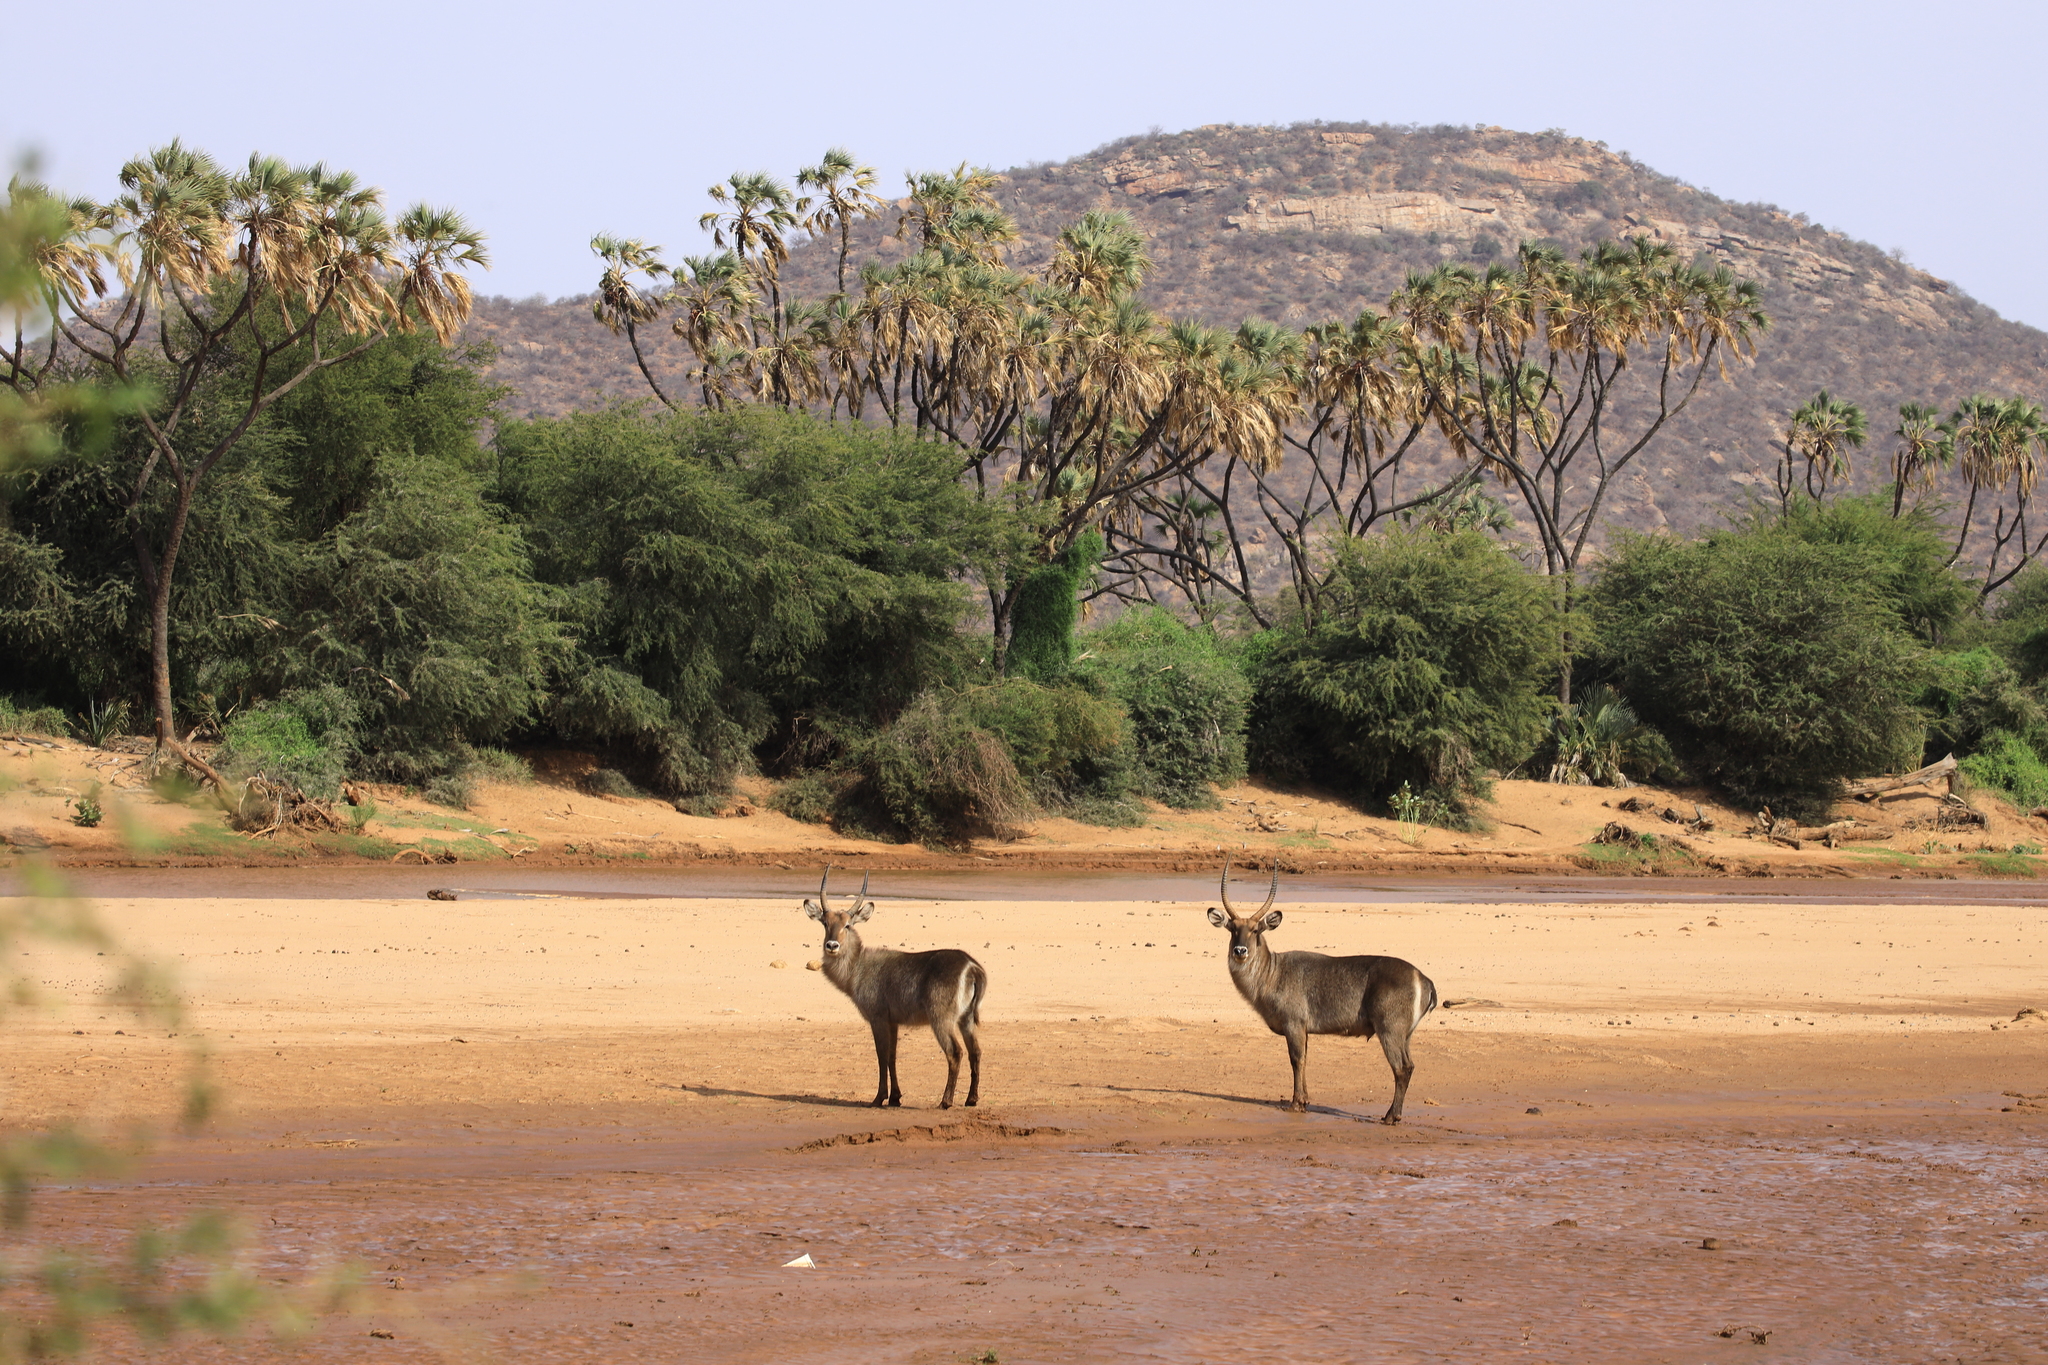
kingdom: Animalia
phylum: Chordata
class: Mammalia
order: Artiodactyla
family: Bovidae
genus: Kobus
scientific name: Kobus ellipsiprymnus
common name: Waterbuck
